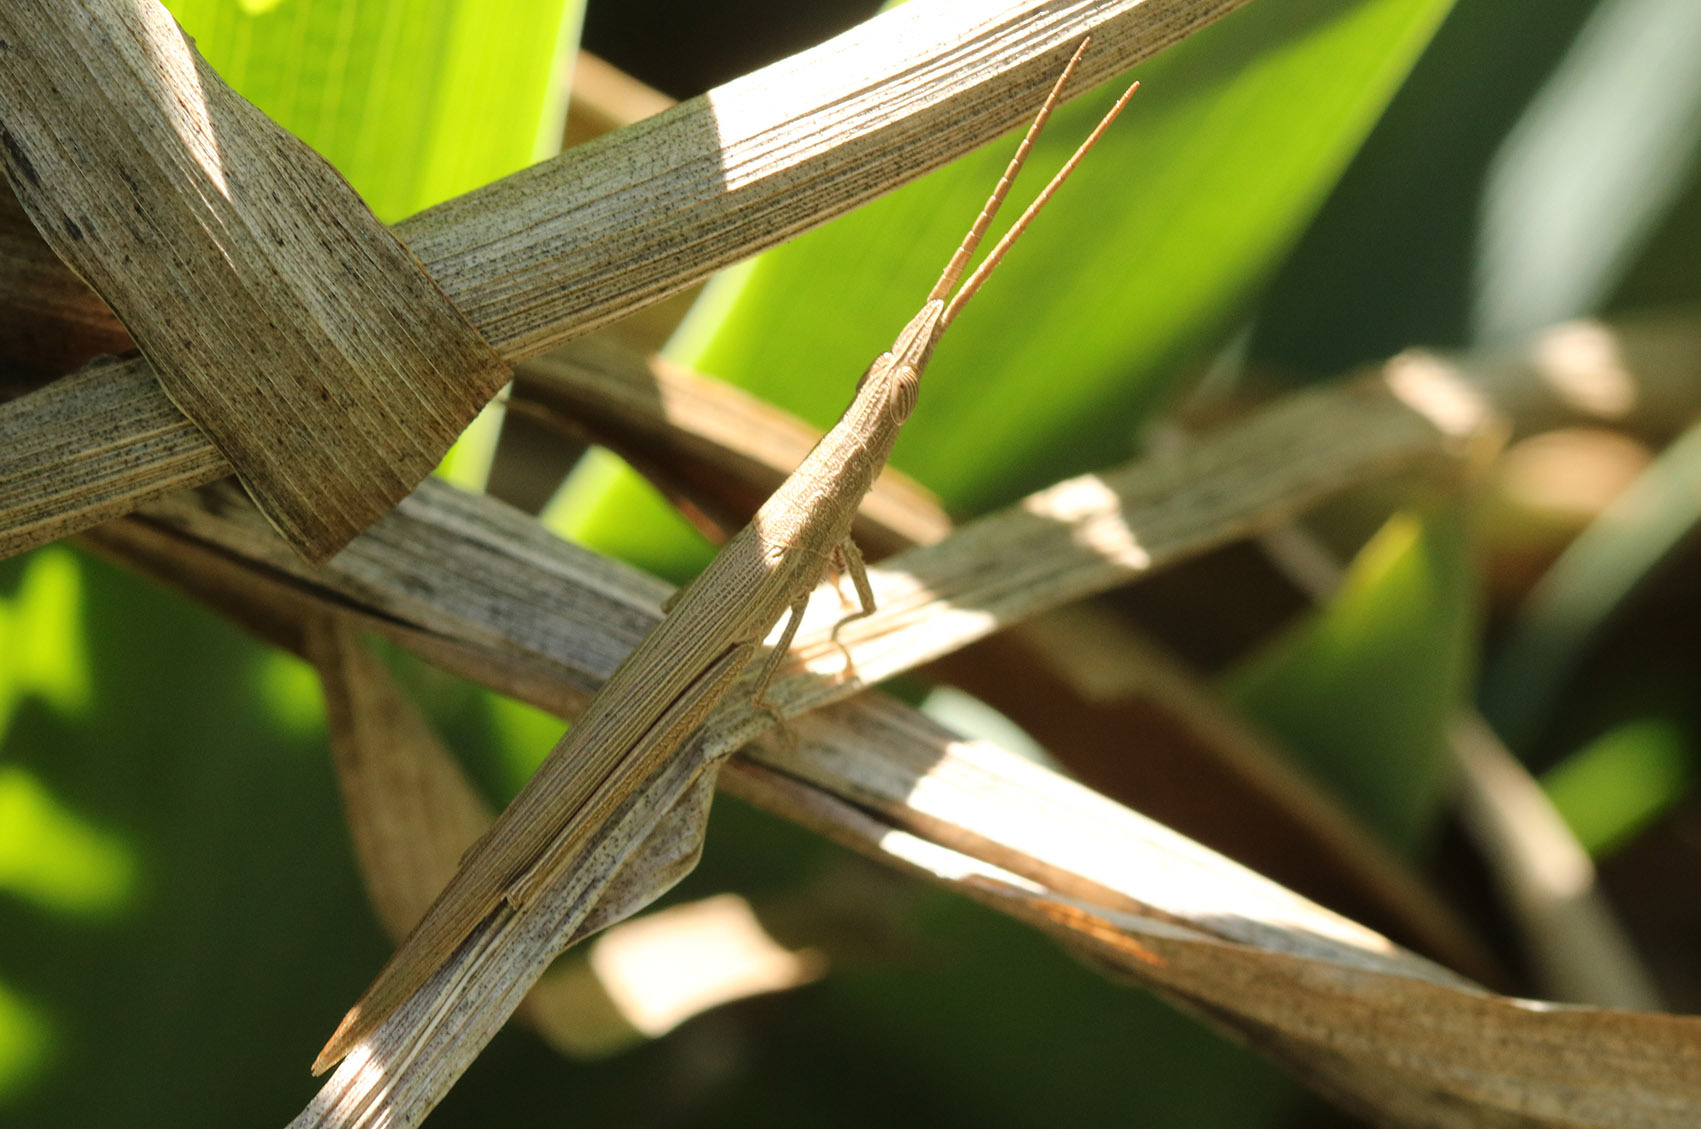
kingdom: Animalia
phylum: Arthropoda
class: Insecta
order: Orthoptera
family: Acrididae
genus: Haroldgrantia
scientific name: Haroldgrantia lignosa
